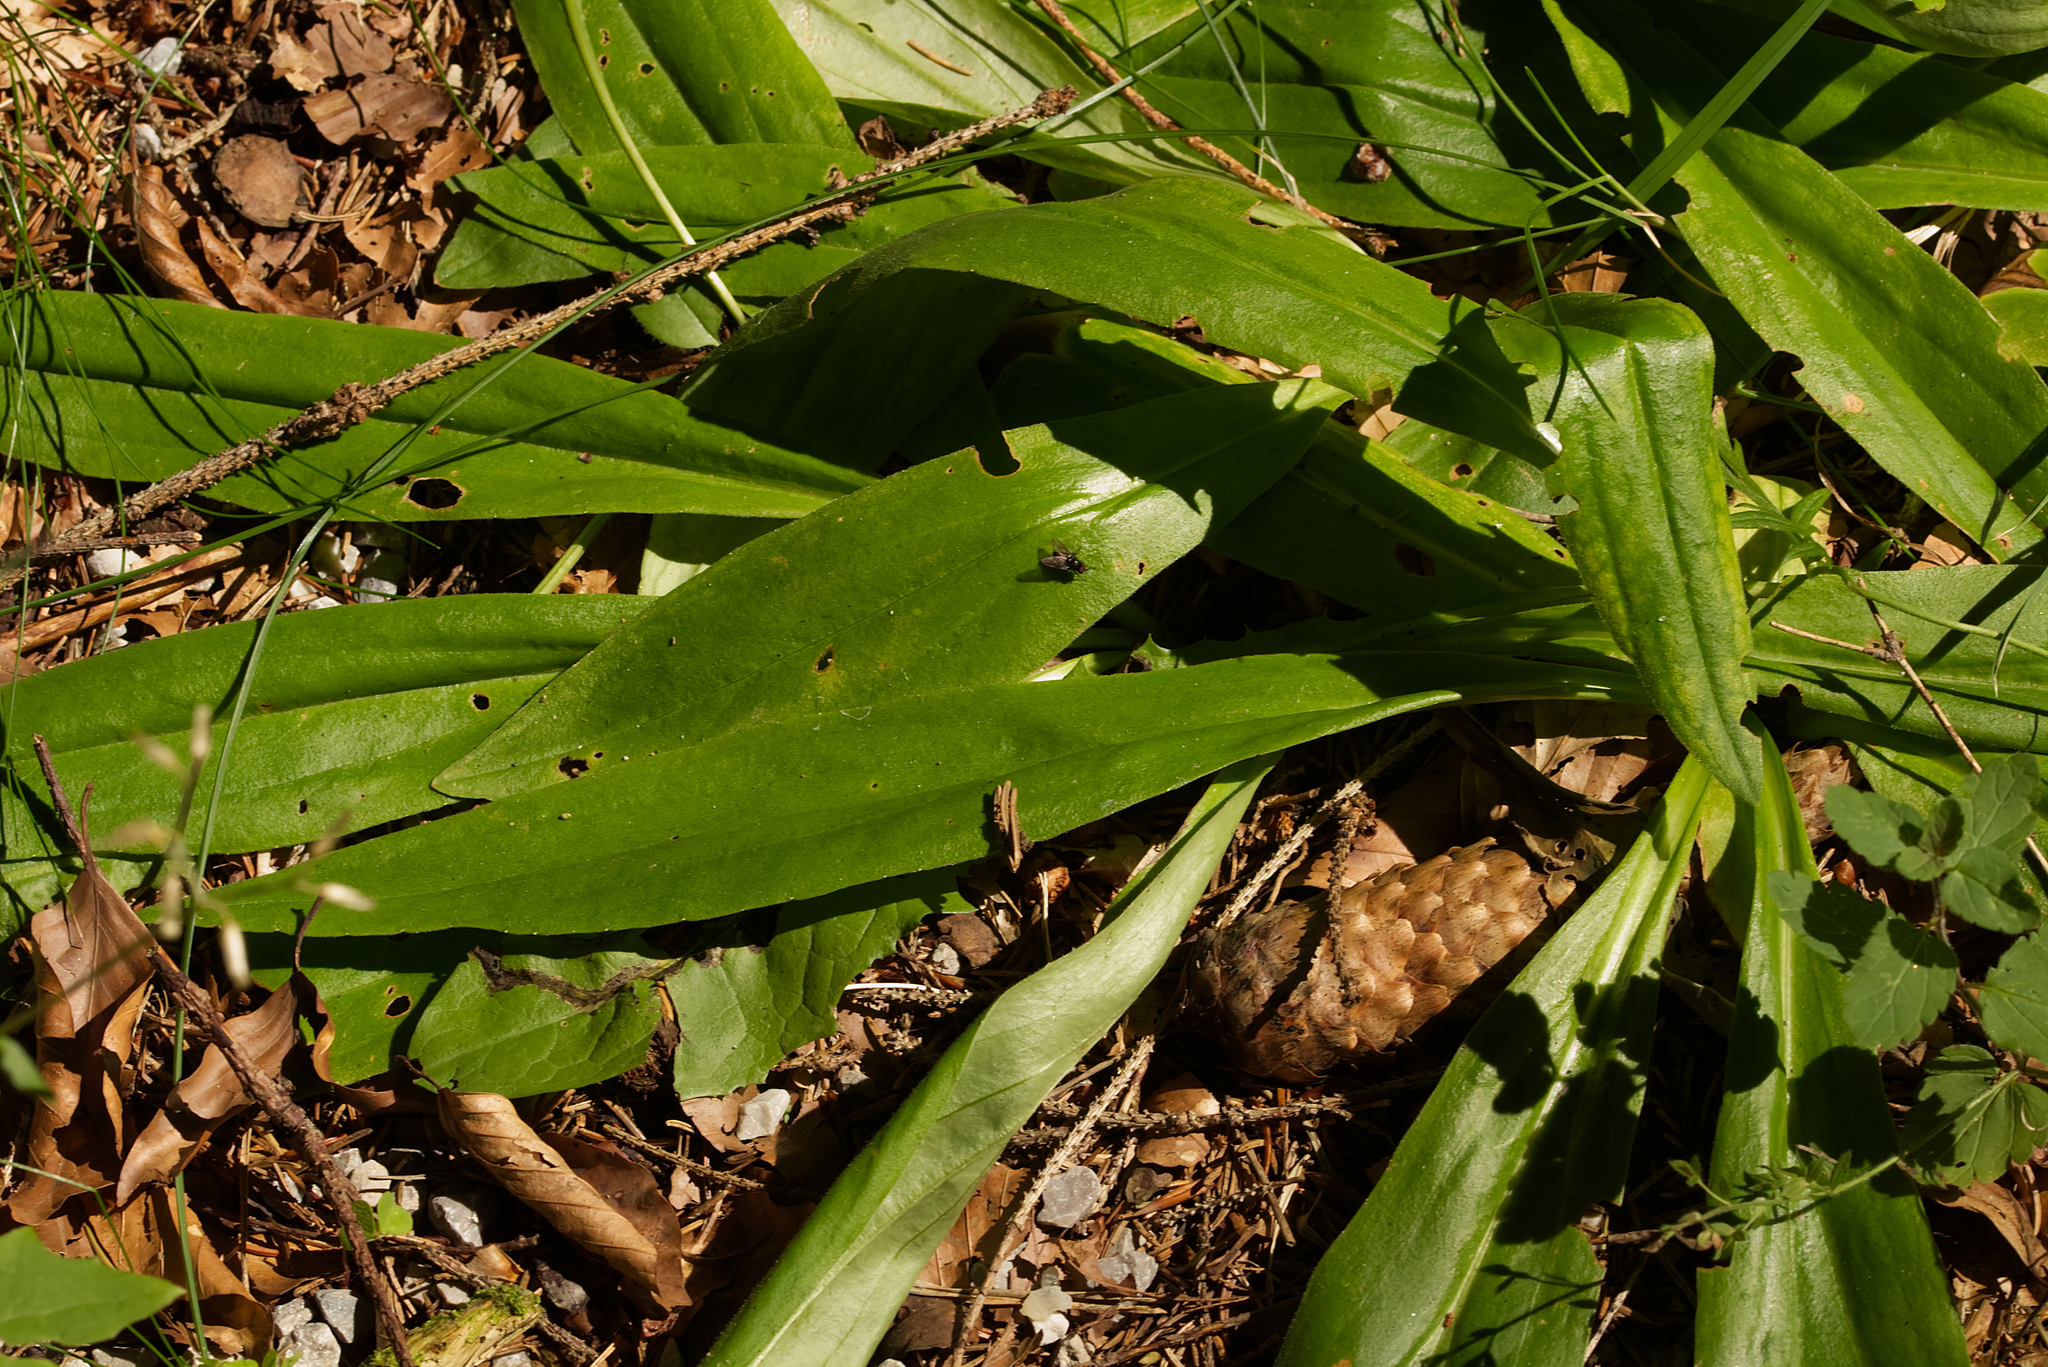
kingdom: Plantae
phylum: Tracheophyta
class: Magnoliopsida
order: Asterales
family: Asteraceae
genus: Arnica
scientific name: Arnica montana
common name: Leopard's bane
